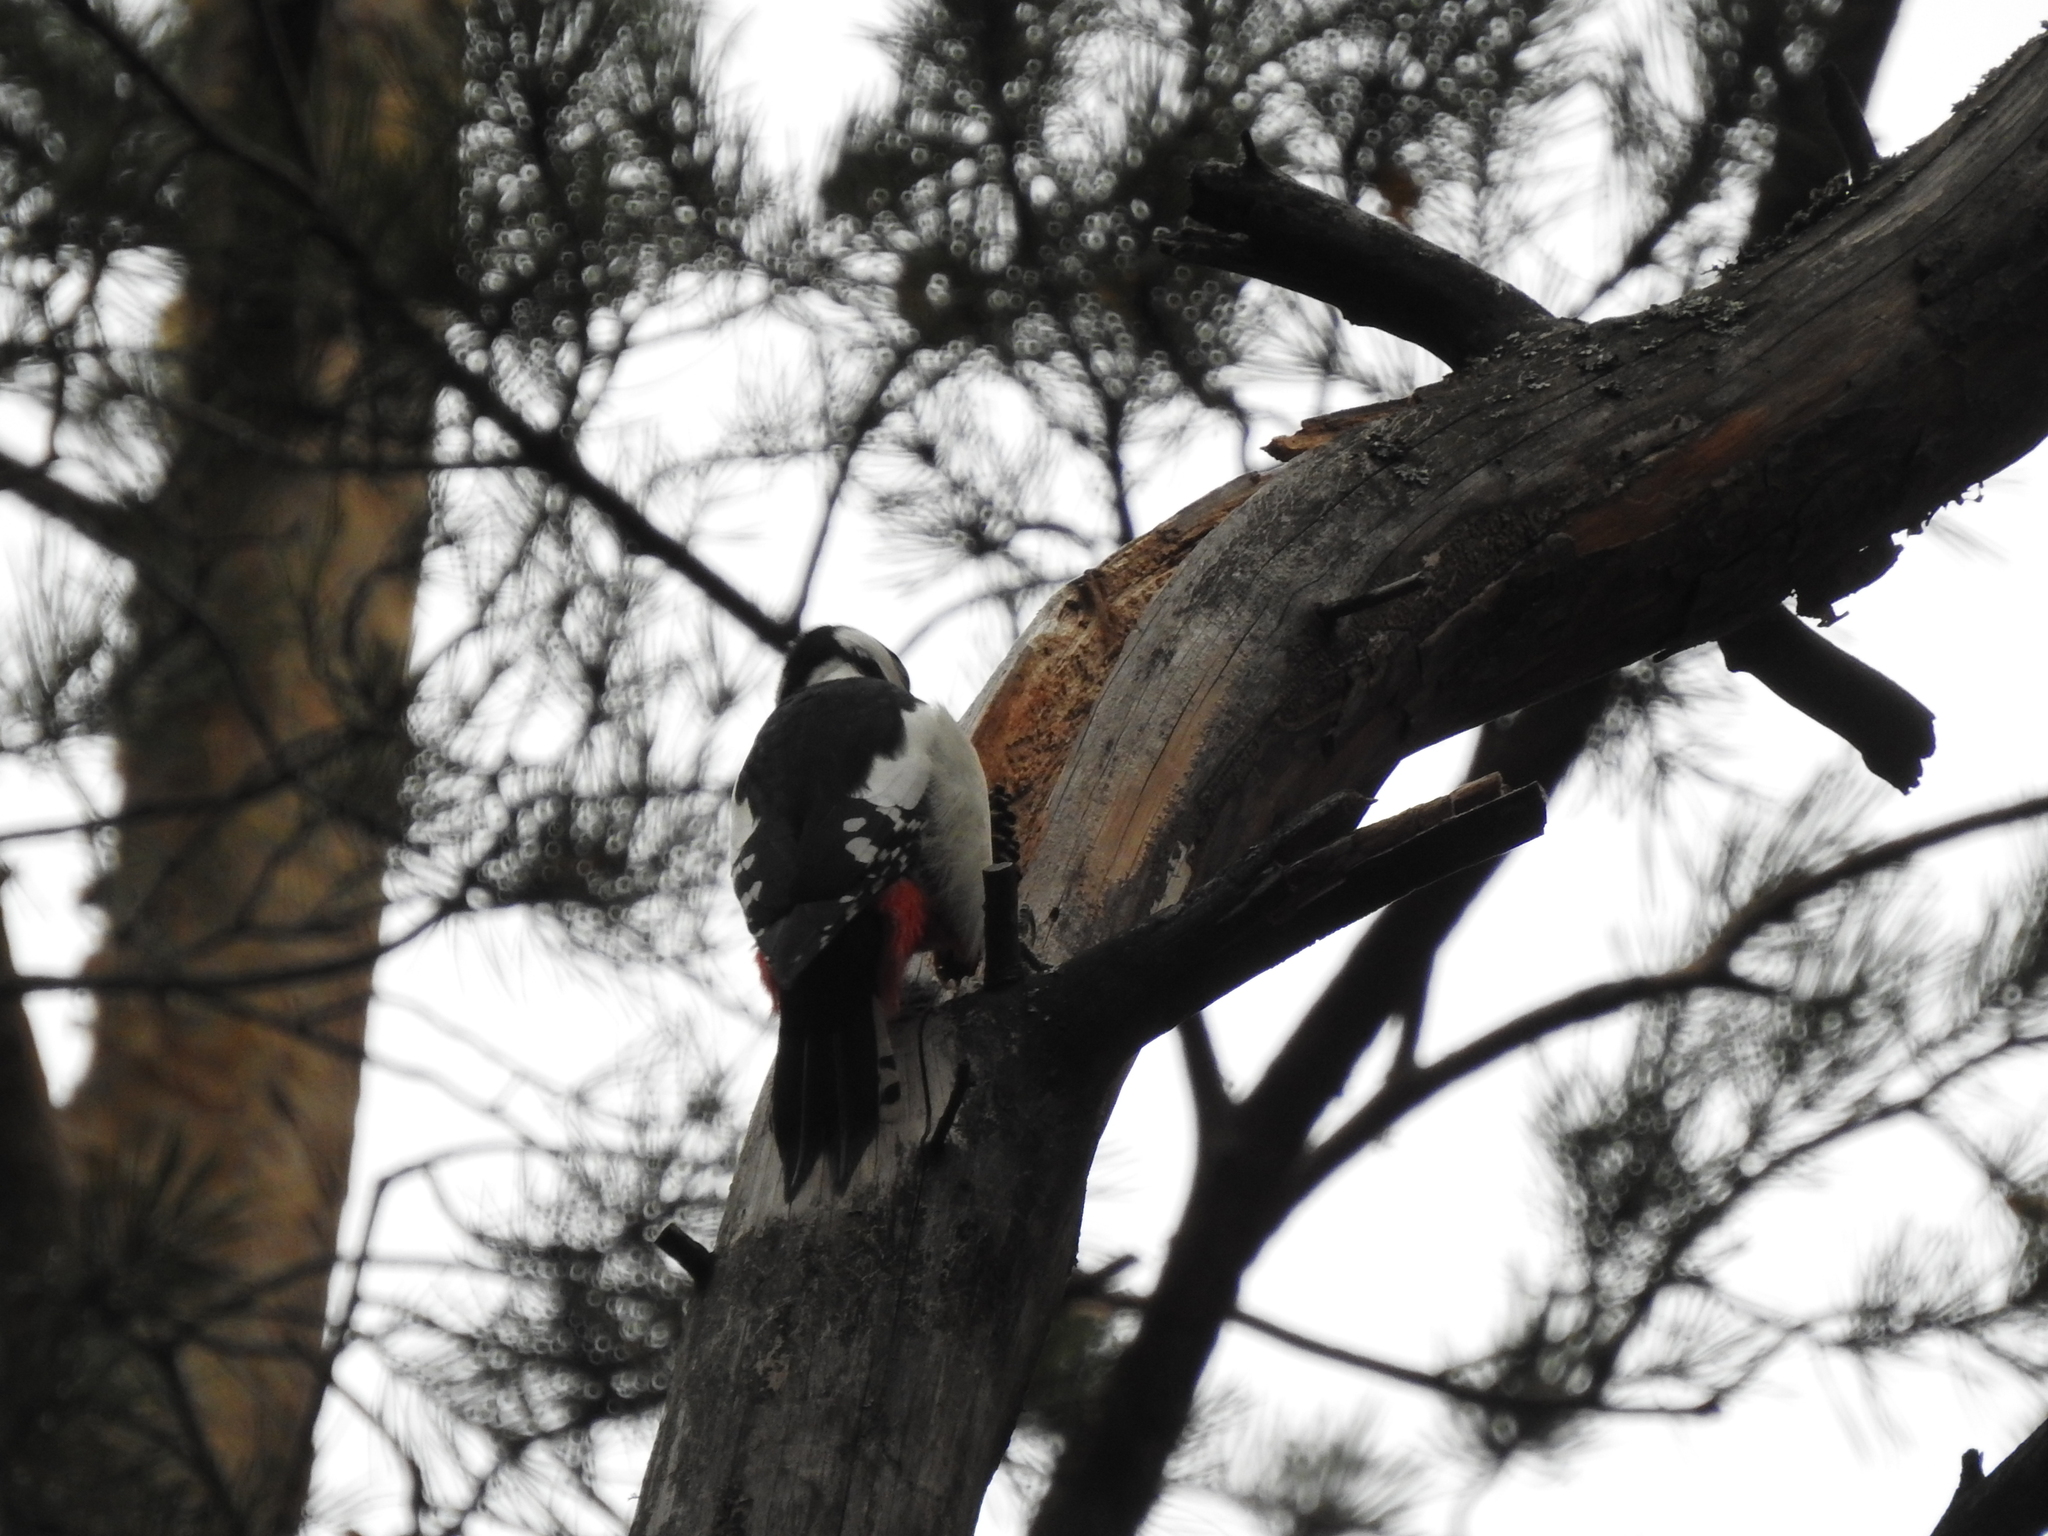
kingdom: Animalia
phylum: Chordata
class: Aves
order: Piciformes
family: Picidae
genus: Dendrocopos
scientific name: Dendrocopos major
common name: Great spotted woodpecker
